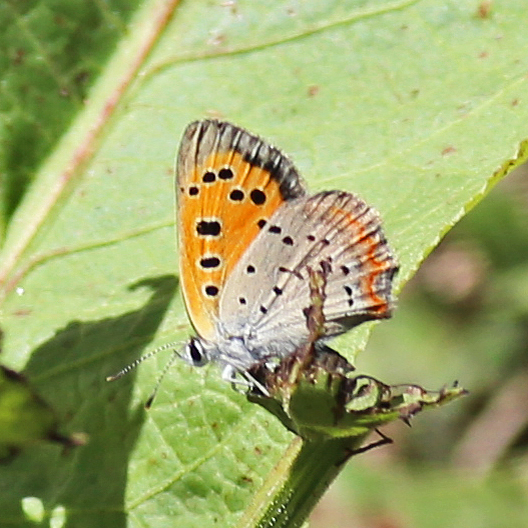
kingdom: Animalia
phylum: Arthropoda
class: Insecta
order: Lepidoptera
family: Lycaenidae
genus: Lycaena
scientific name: Lycaena hypophlaeas
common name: American copper
